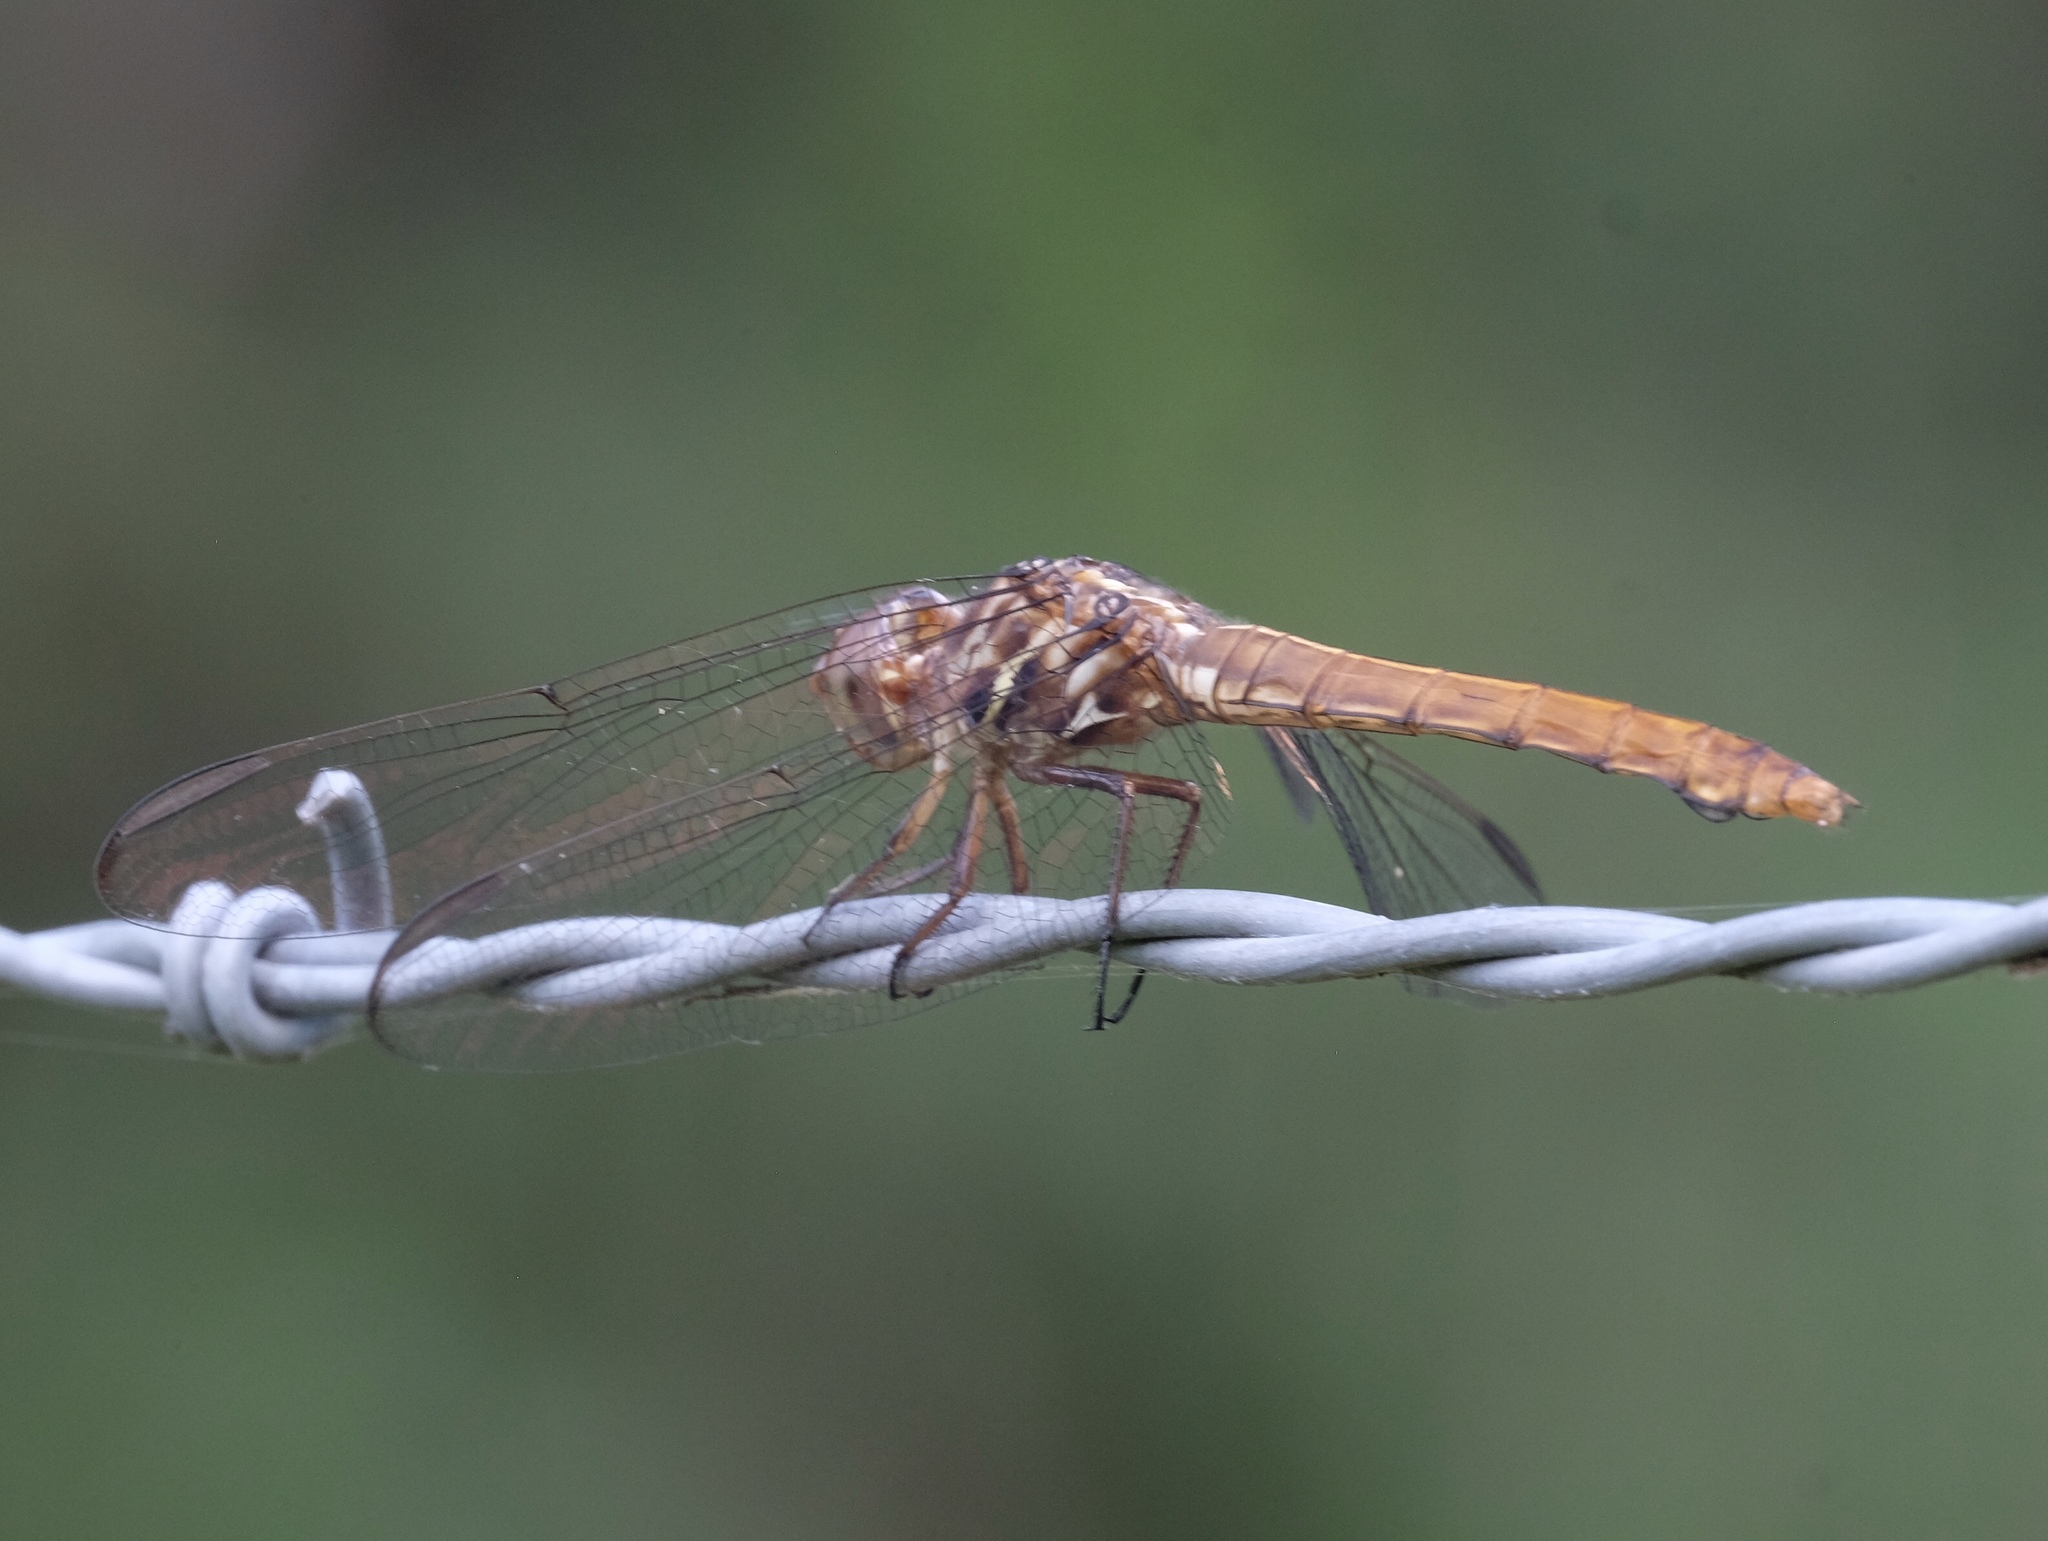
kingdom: Animalia
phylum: Arthropoda
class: Insecta
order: Odonata
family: Libellulidae
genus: Orthemis
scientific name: Orthemis ferruginea
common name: Roseate skimmer
